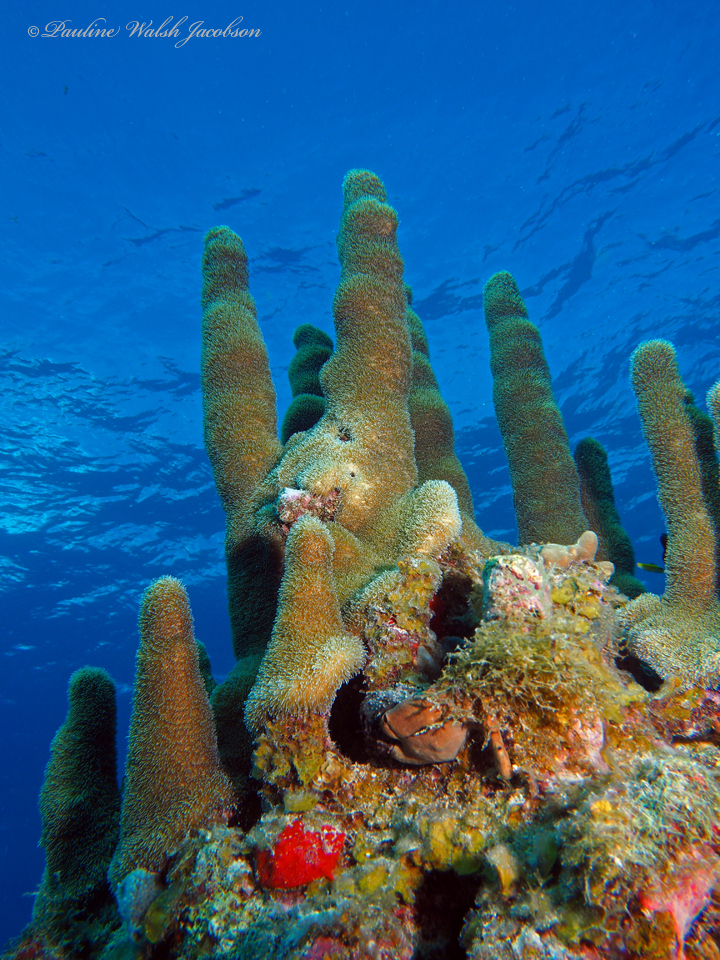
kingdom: Animalia
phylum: Cnidaria
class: Anthozoa
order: Scleractinia
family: Meandrinidae
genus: Dendrogyra
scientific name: Dendrogyra cylindrus
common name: Pillar coral
